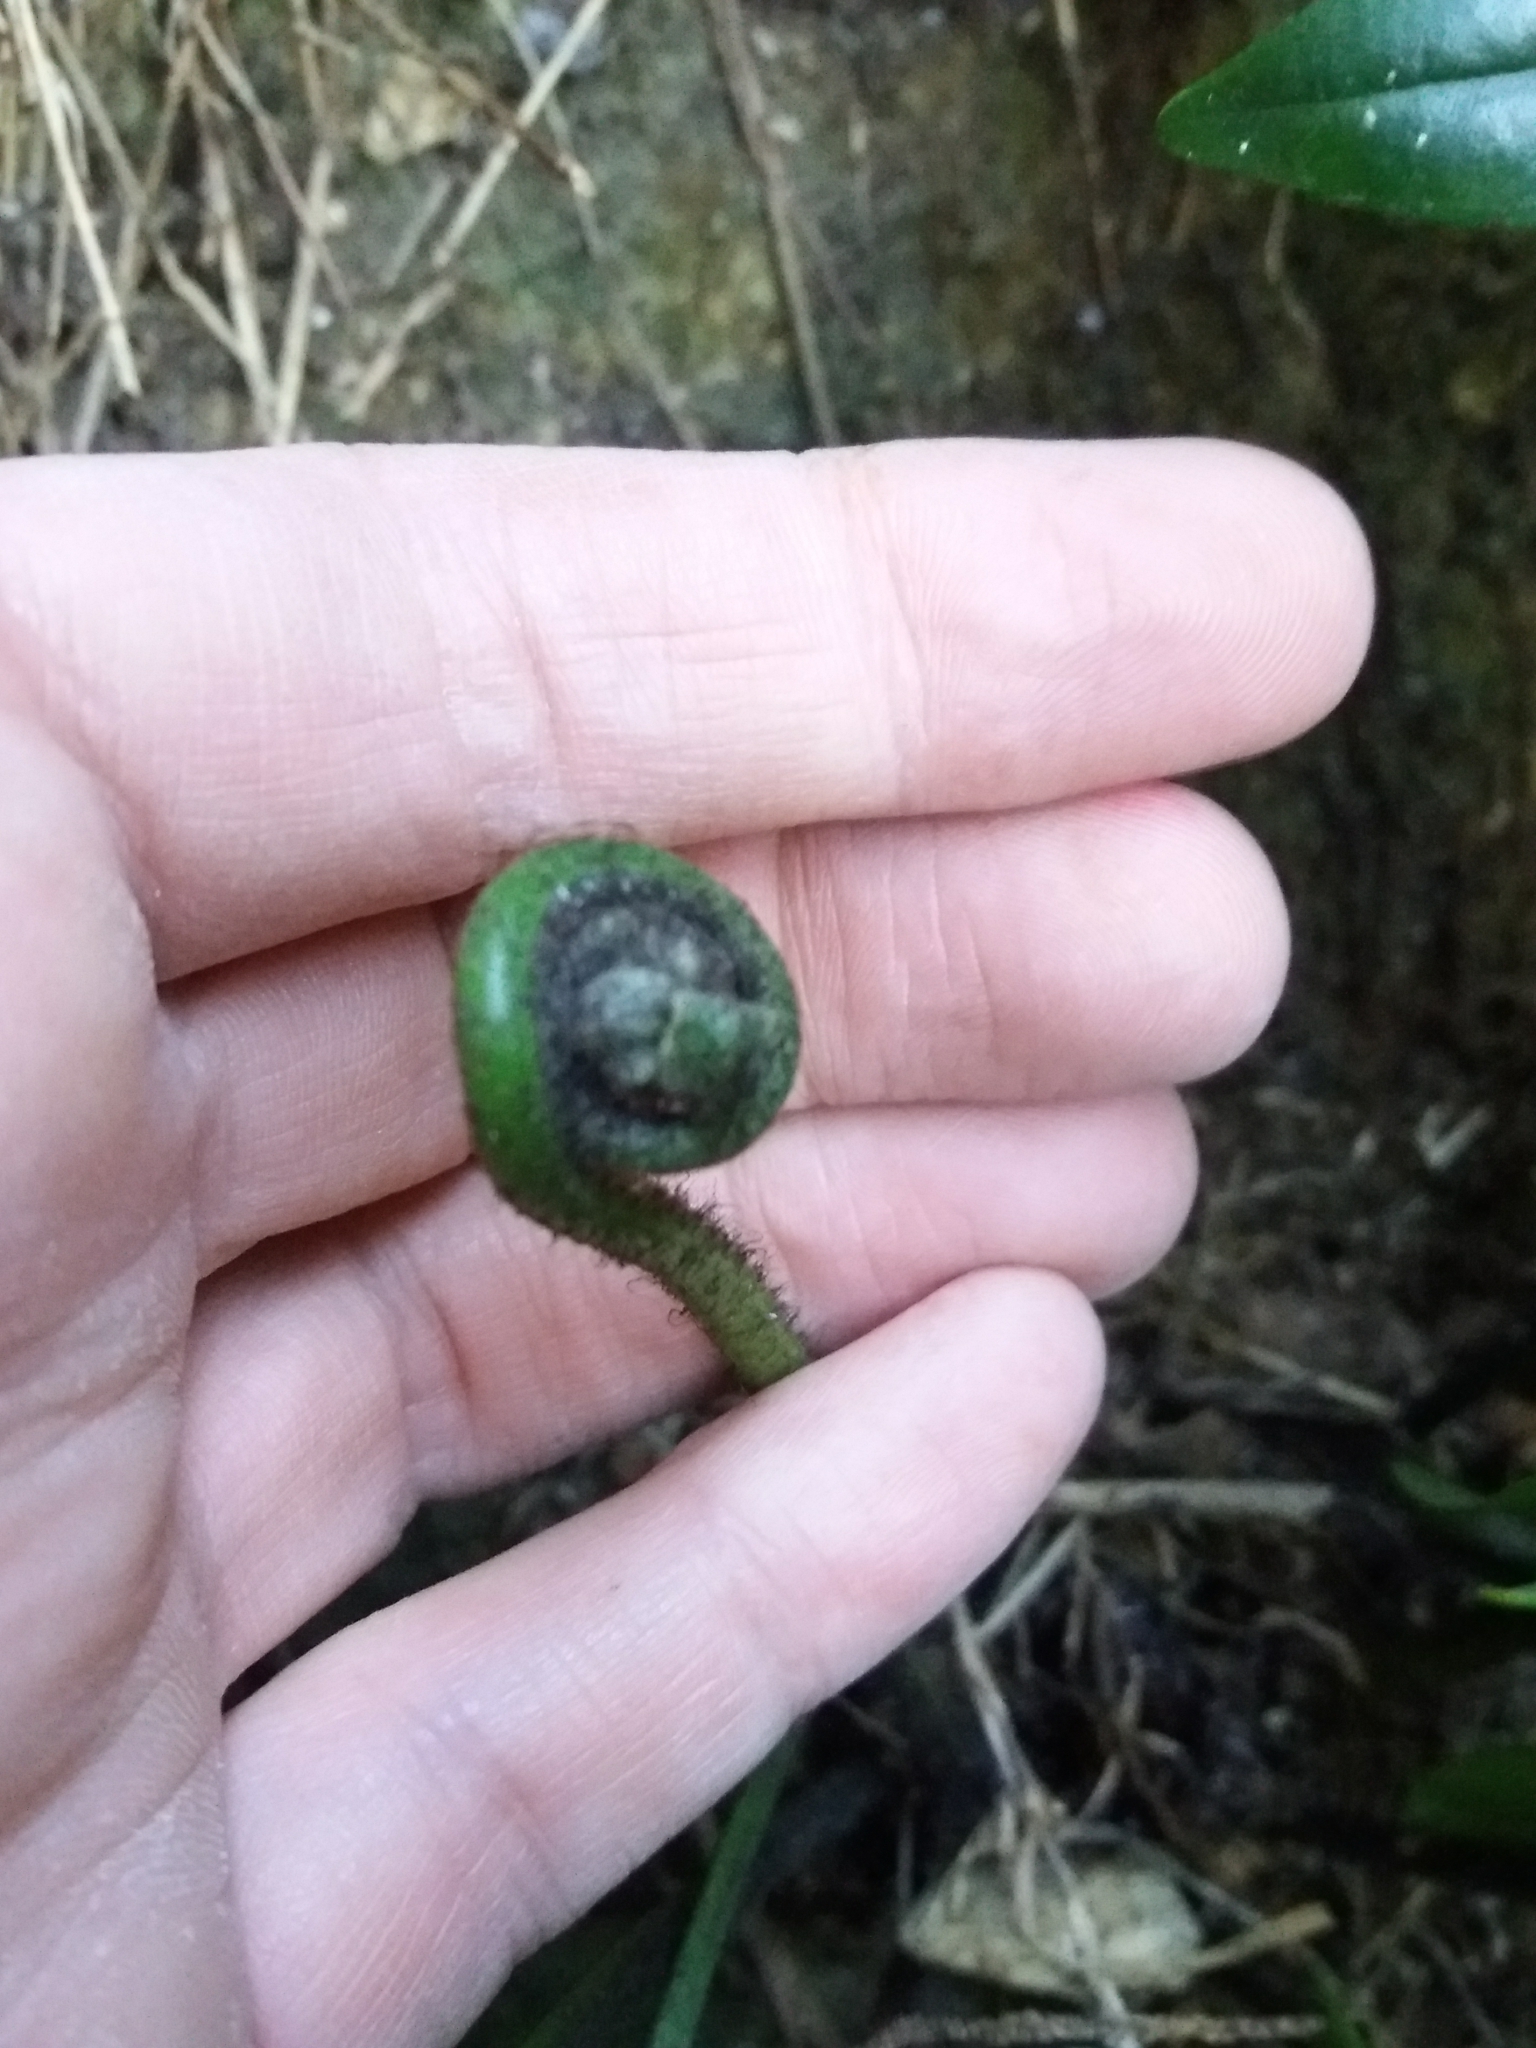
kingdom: Plantae
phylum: Tracheophyta
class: Polypodiopsida
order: Polypodiales
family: Aspleniaceae
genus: Asplenium
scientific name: Asplenium oblongifolium
